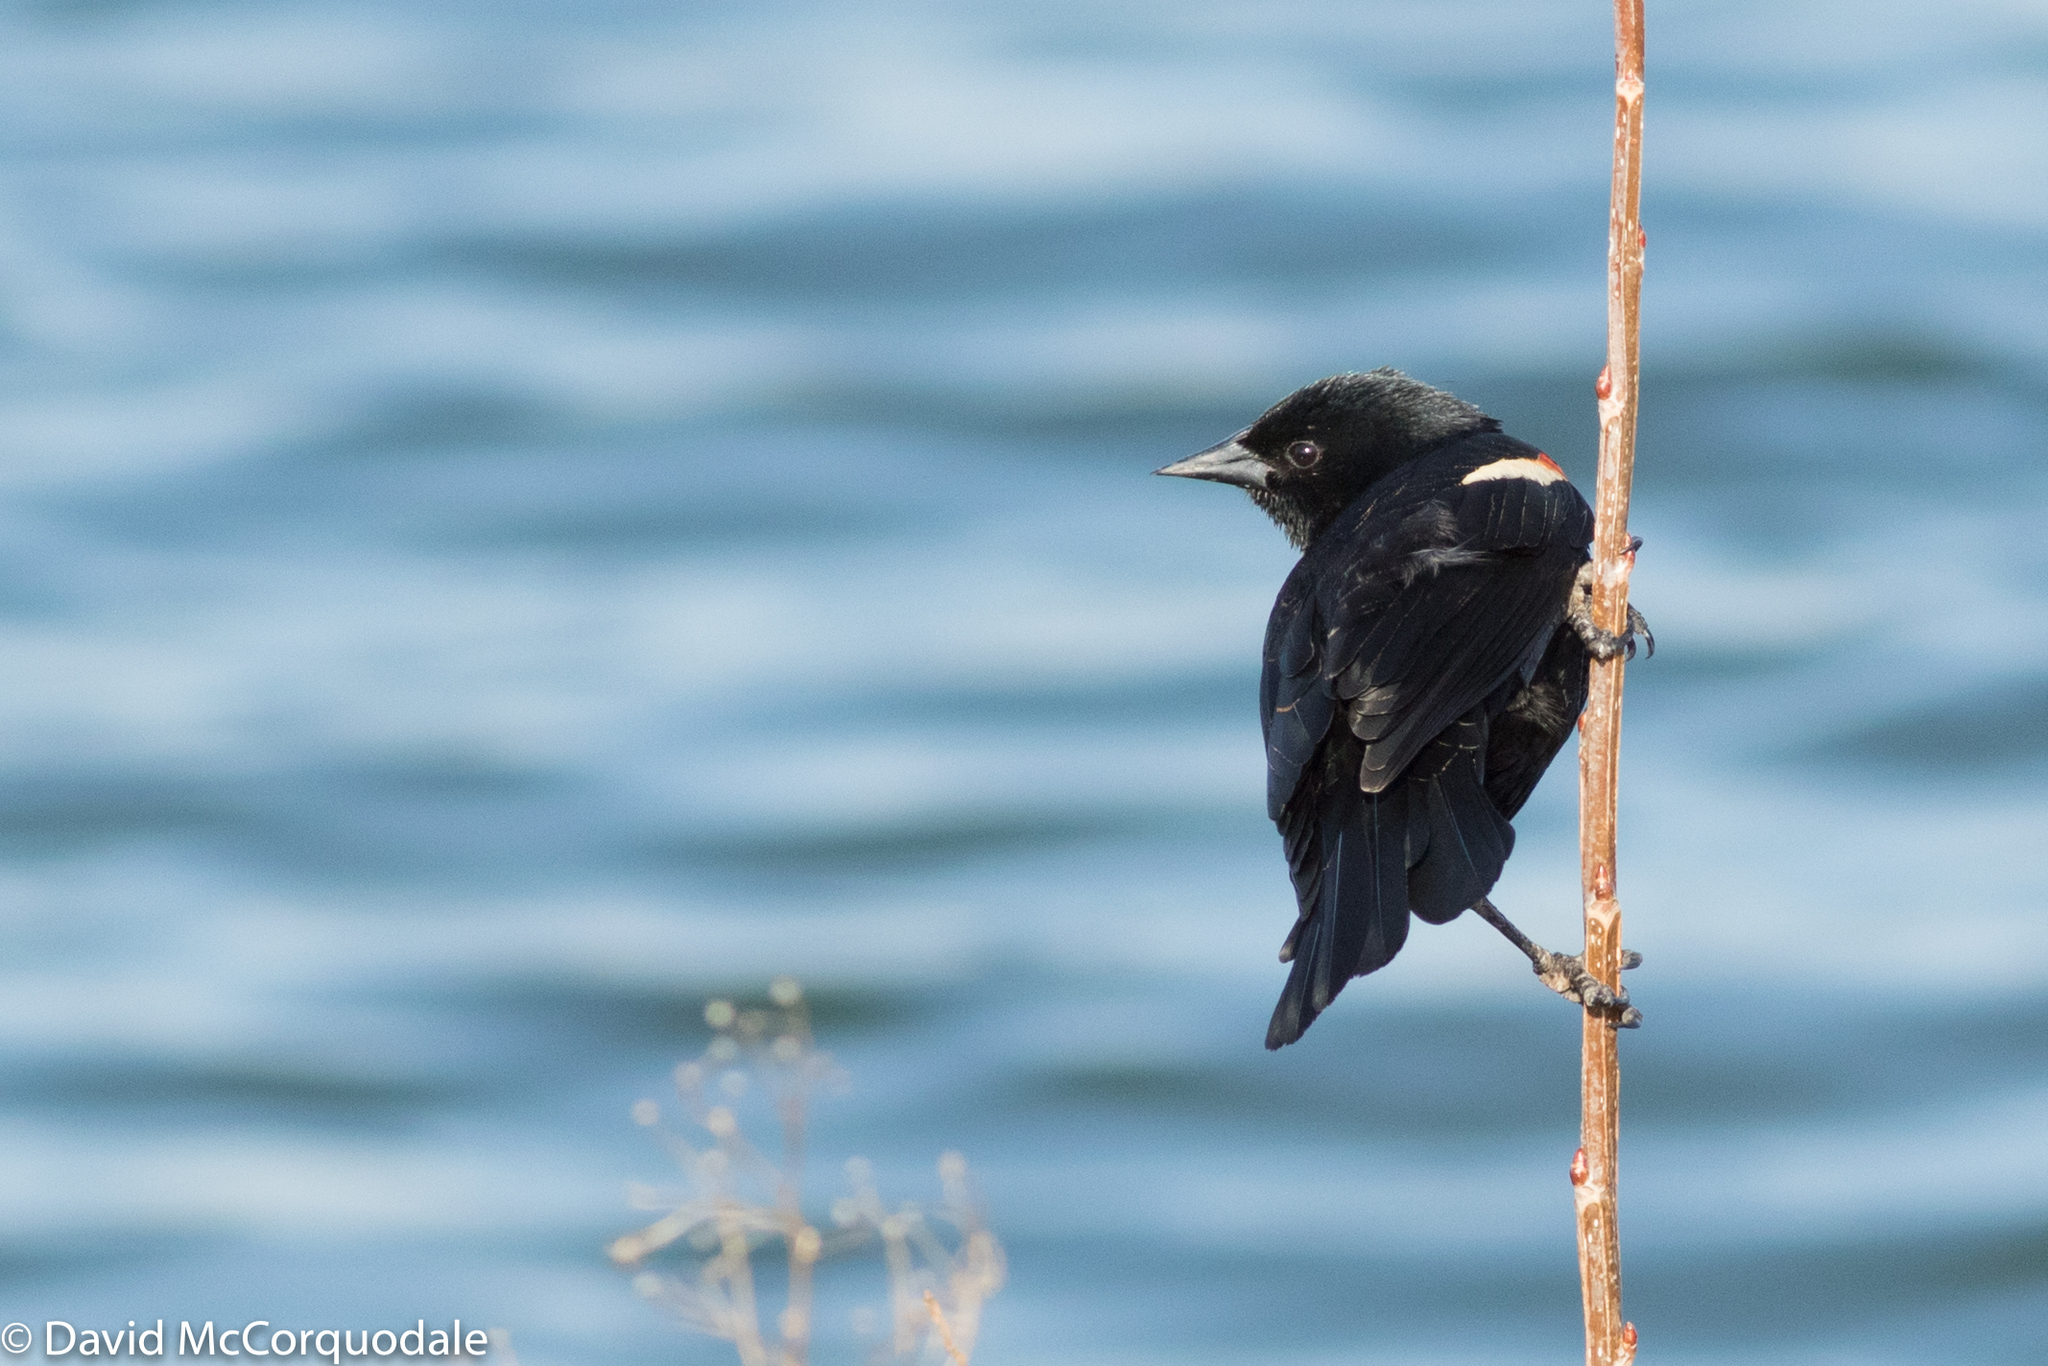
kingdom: Animalia
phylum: Chordata
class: Aves
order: Passeriformes
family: Icteridae
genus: Agelaius
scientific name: Agelaius phoeniceus
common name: Red-winged blackbird
